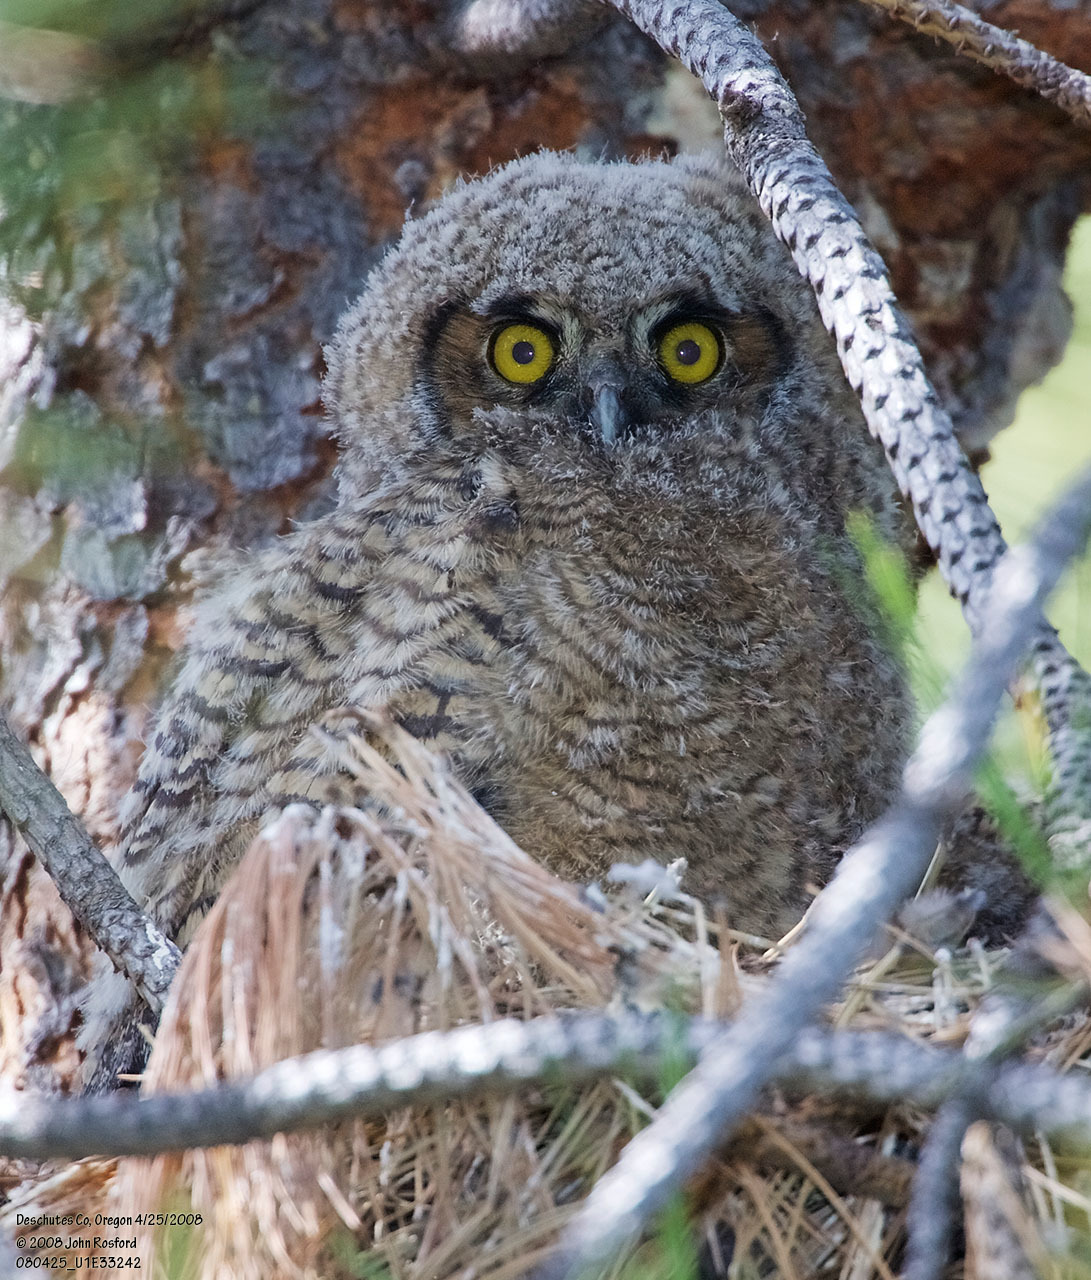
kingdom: Animalia
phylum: Chordata
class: Aves
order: Strigiformes
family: Strigidae
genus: Bubo
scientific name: Bubo virginianus
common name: Great horned owl
